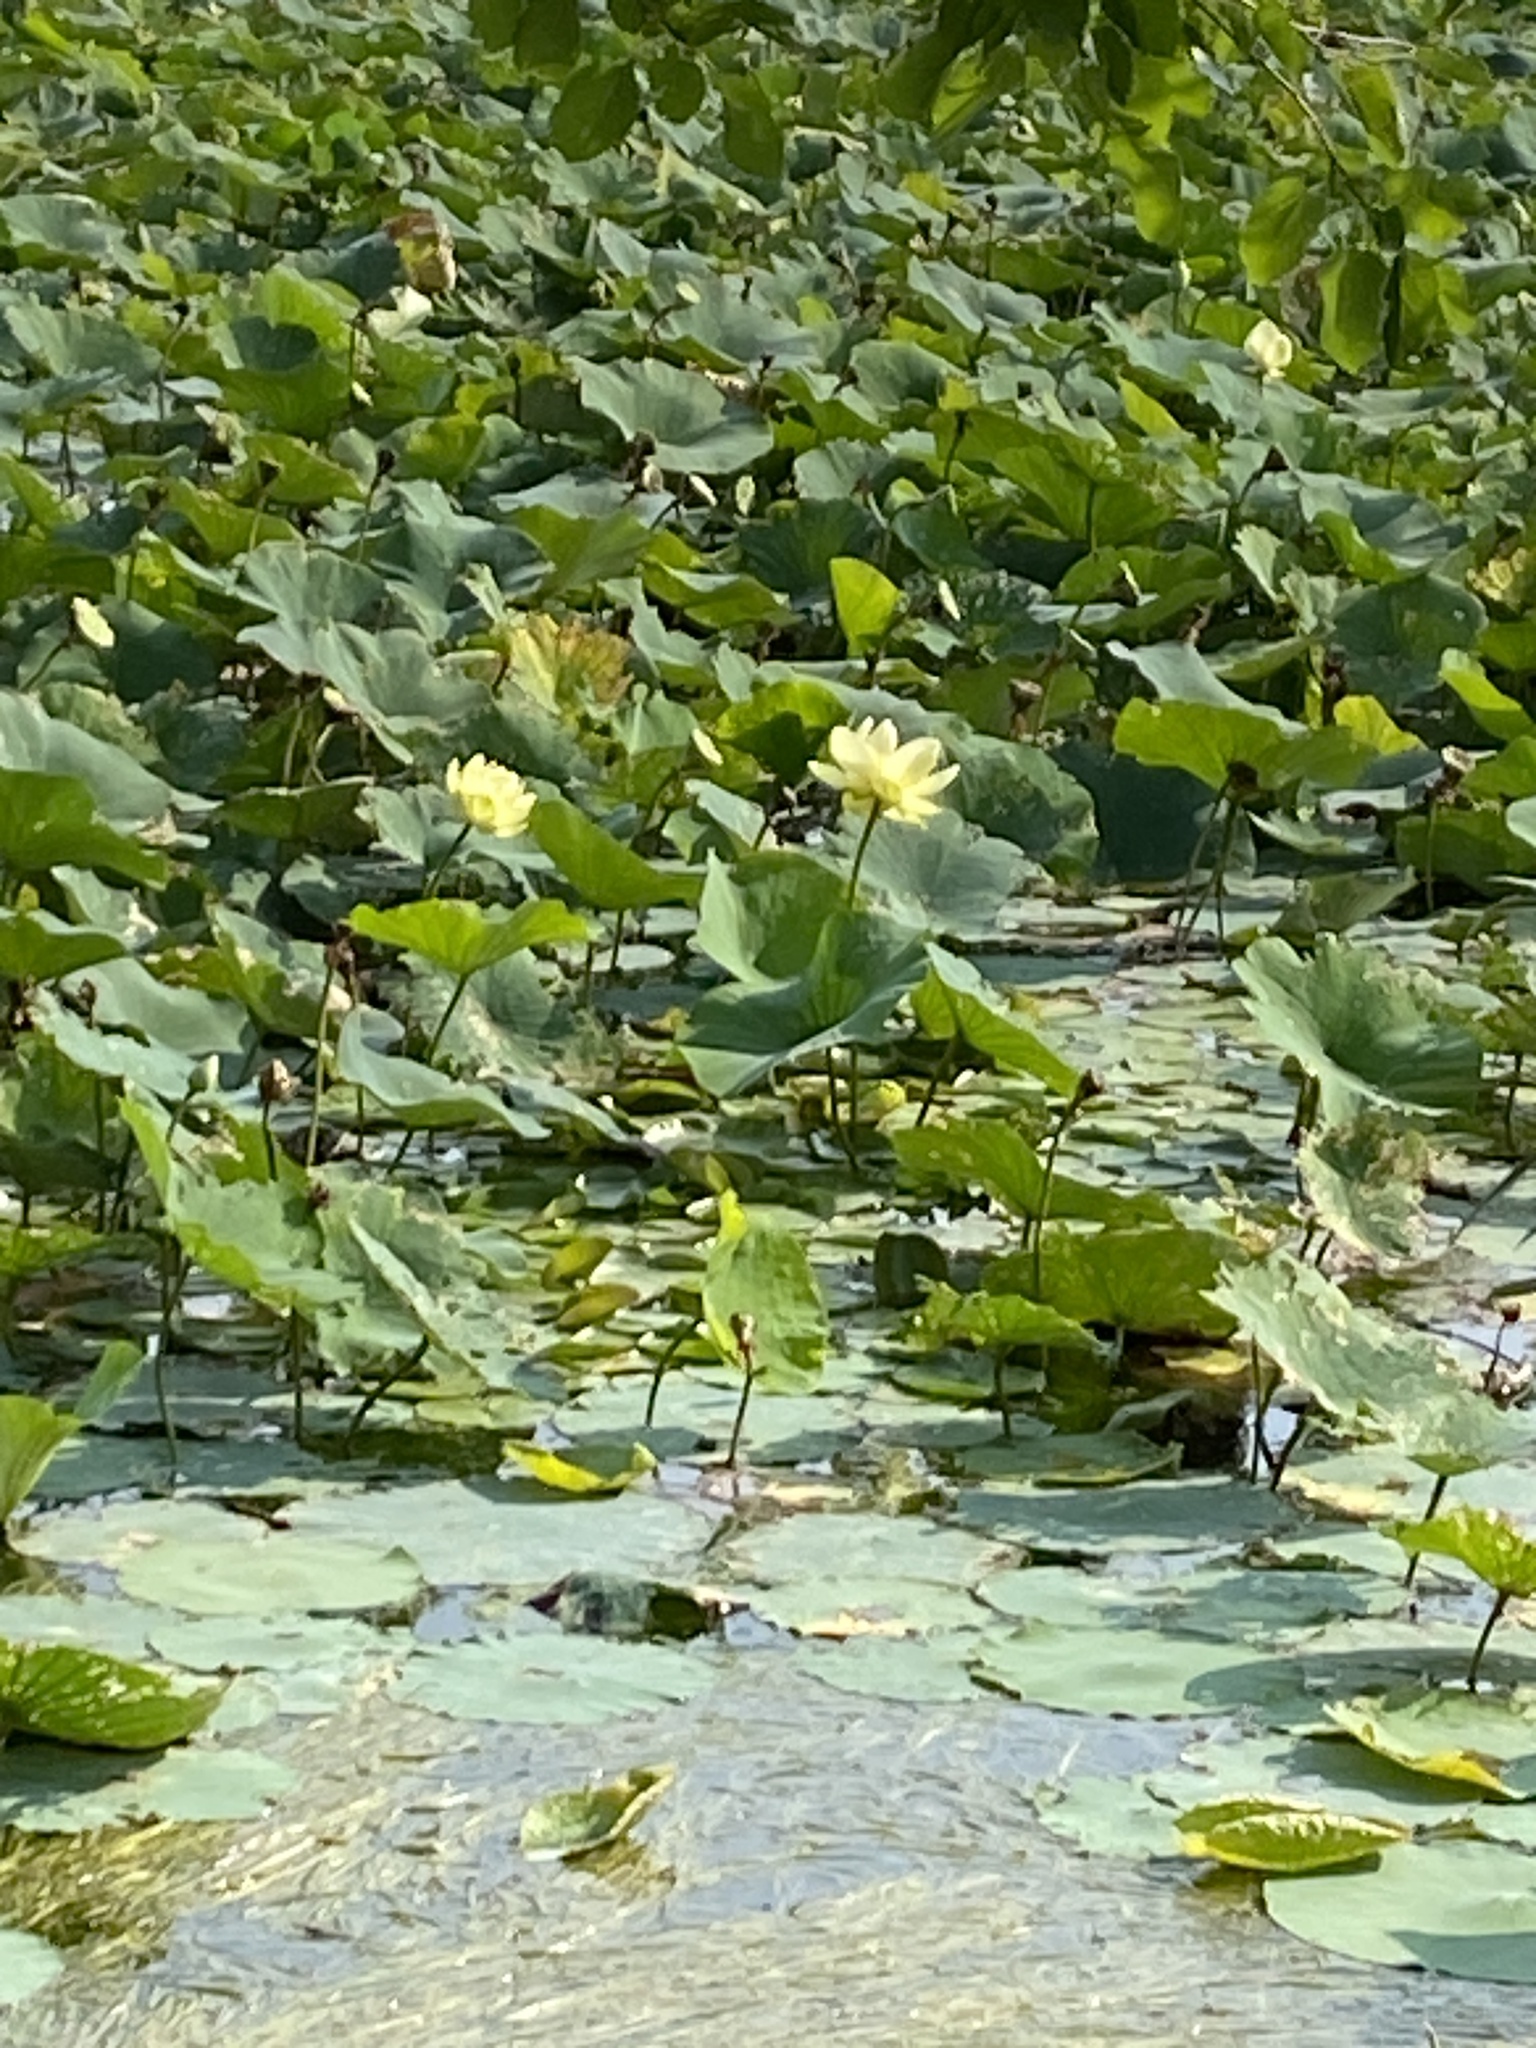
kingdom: Plantae
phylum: Tracheophyta
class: Magnoliopsida
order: Proteales
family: Nelumbonaceae
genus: Nelumbo
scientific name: Nelumbo lutea
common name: American lotus
